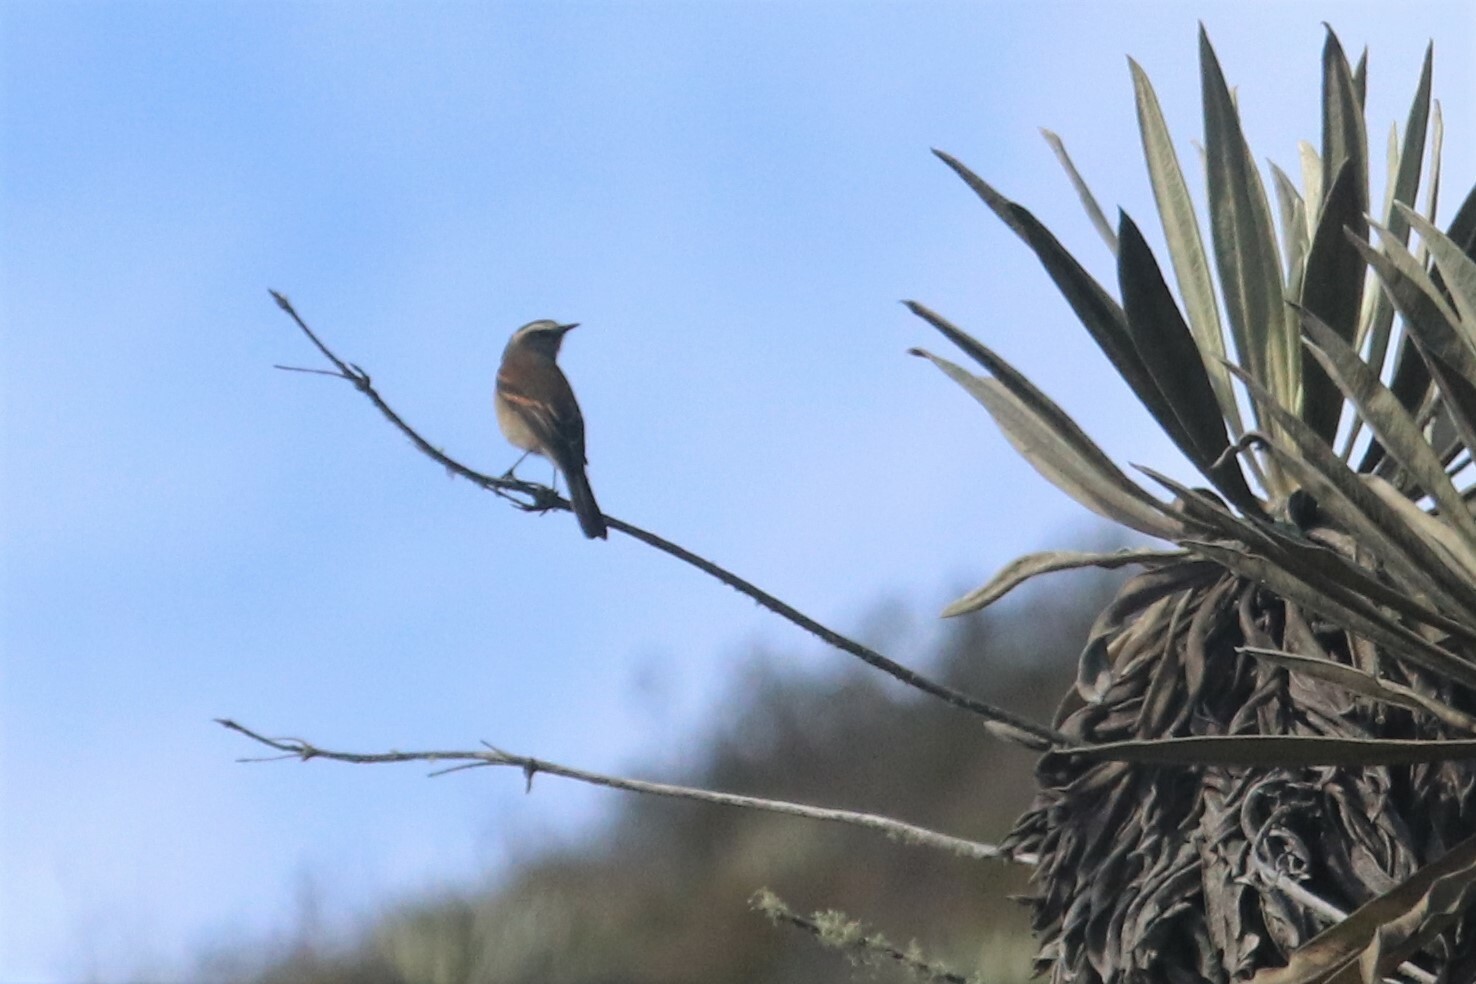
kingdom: Animalia
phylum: Chordata
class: Aves
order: Passeriformes
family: Tyrannidae
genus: Ochthoeca
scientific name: Ochthoeca fumicolor
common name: Brown-backed chat-tyrant
